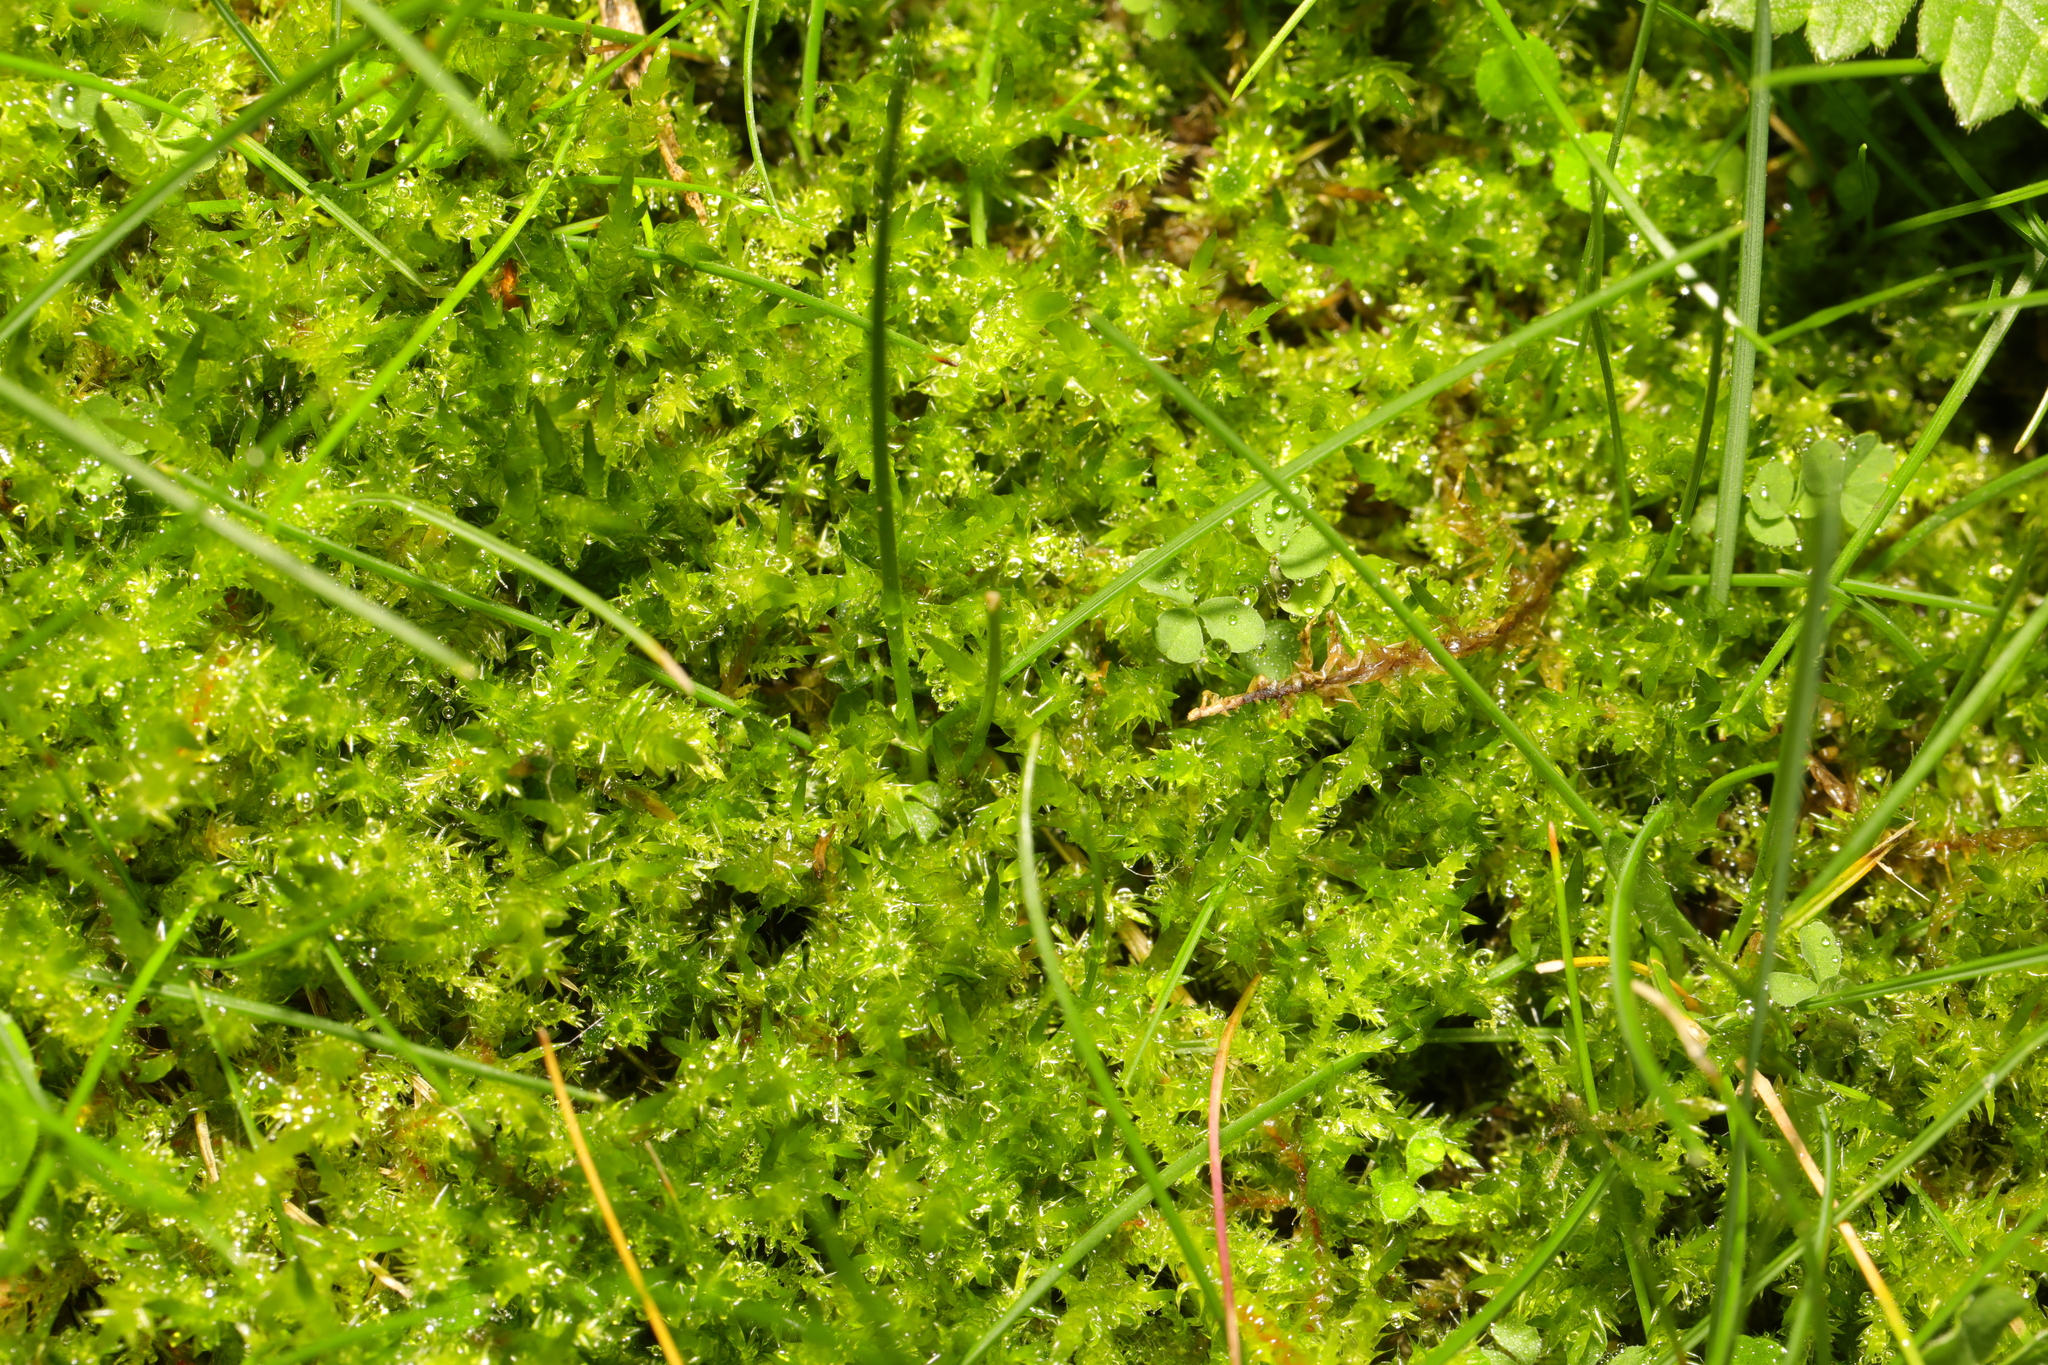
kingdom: Plantae
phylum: Bryophyta
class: Bryopsida
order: Hypnales
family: Hylocomiaceae
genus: Rhytidiadelphus
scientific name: Rhytidiadelphus squarrosus
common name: Springy turf-moss
